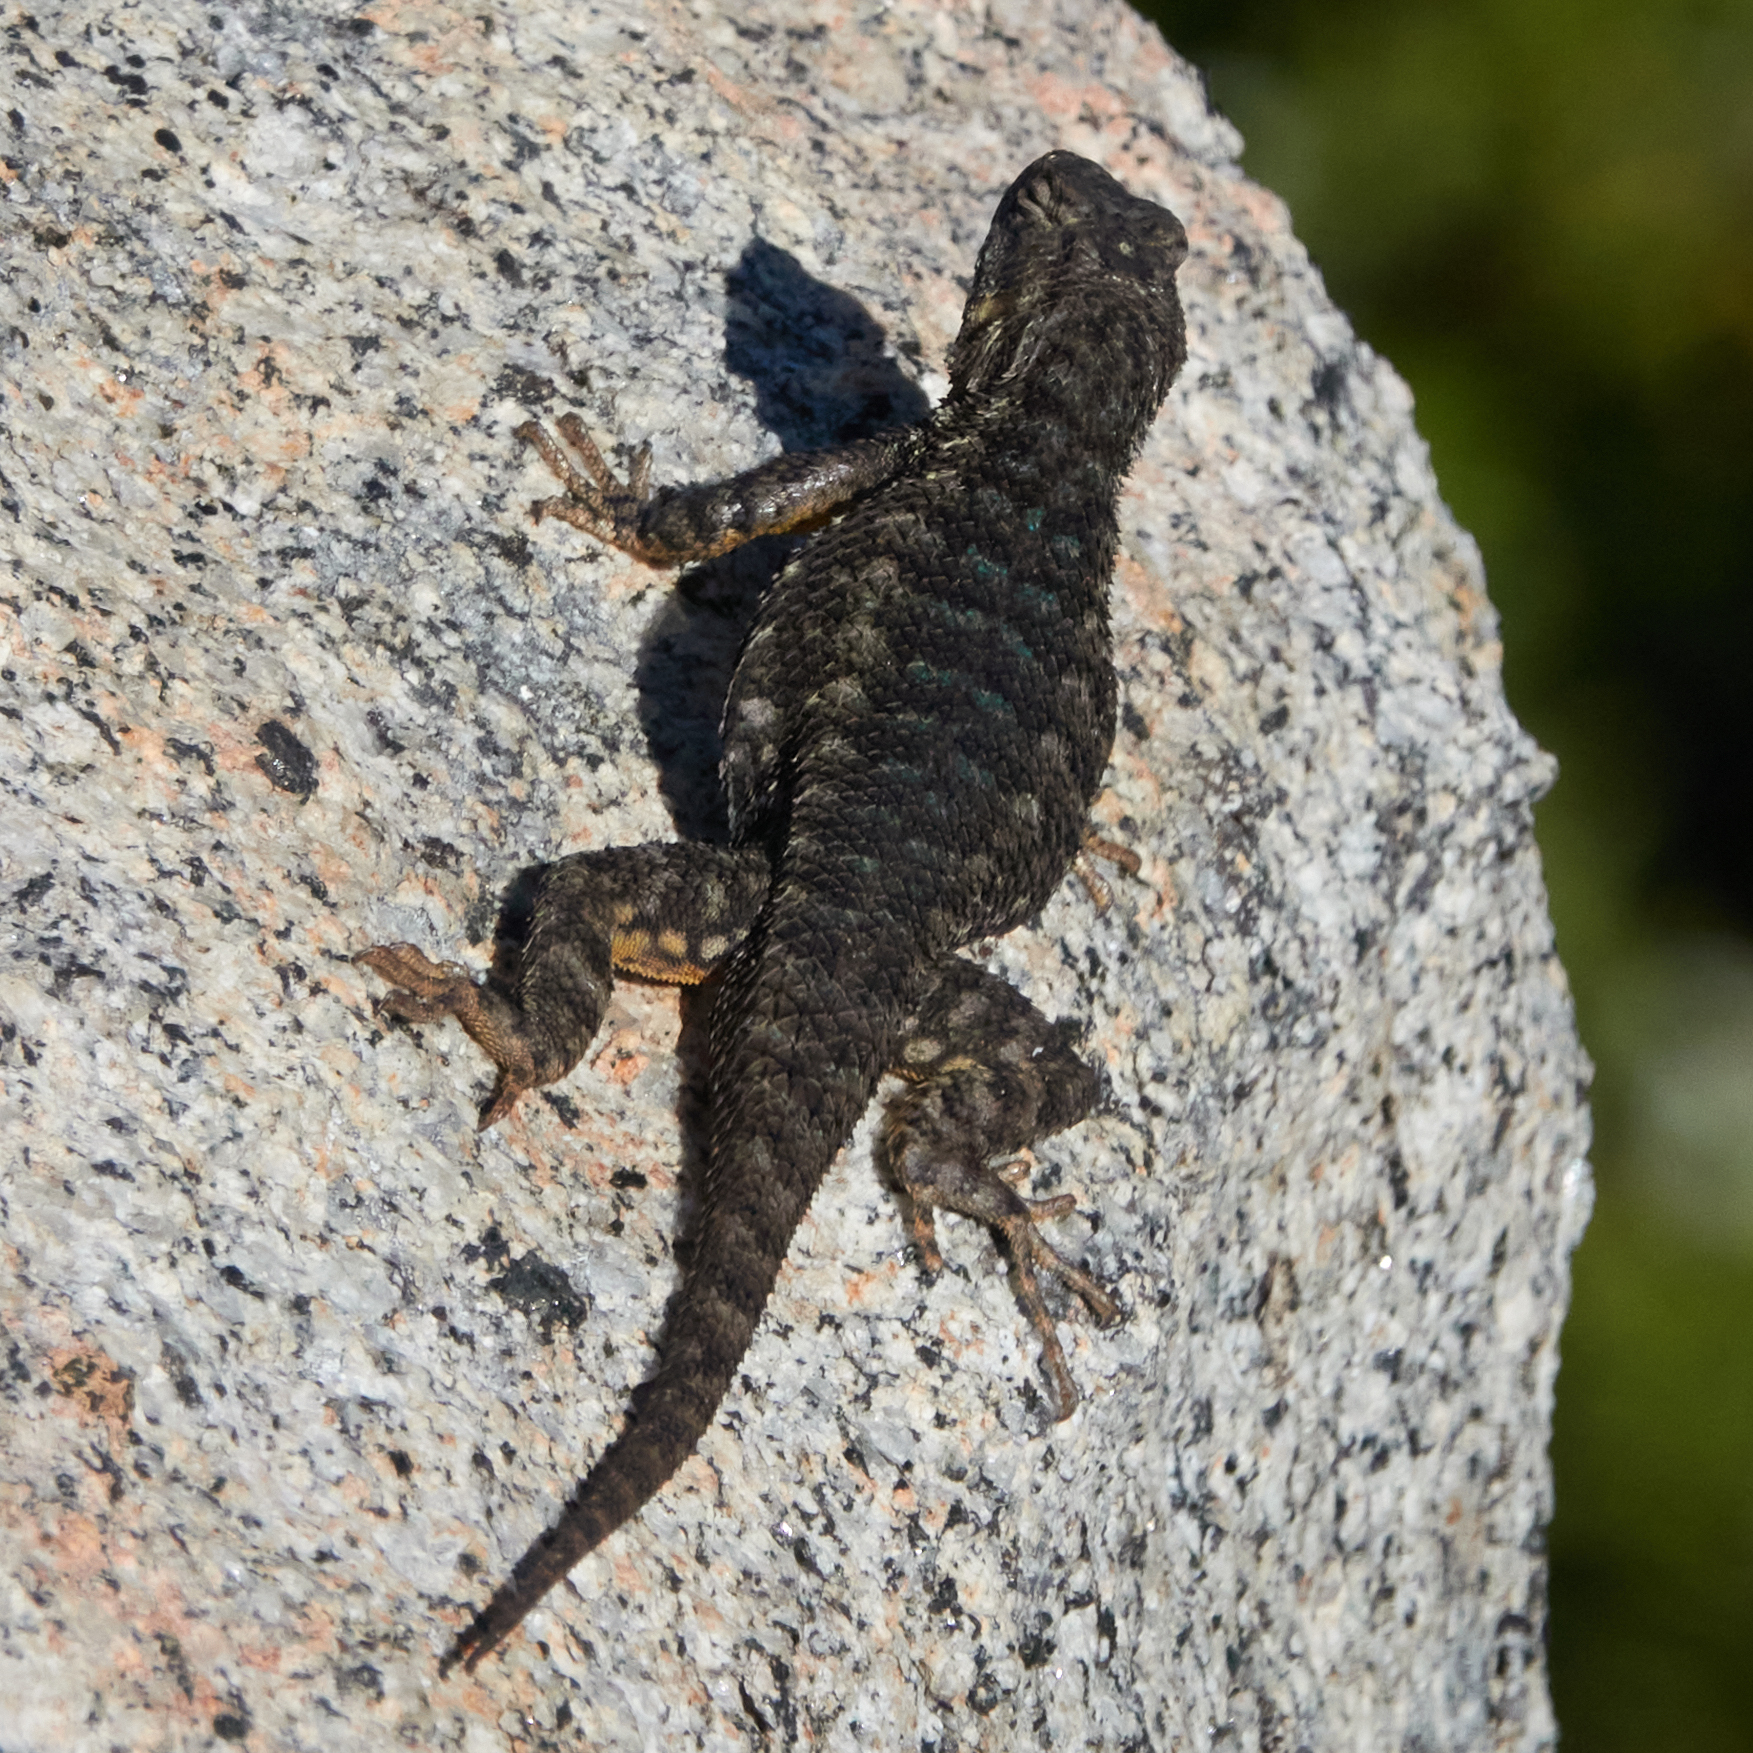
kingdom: Animalia
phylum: Chordata
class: Squamata
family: Phrynosomatidae
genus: Sceloporus
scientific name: Sceloporus occidentalis
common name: Western fence lizard
